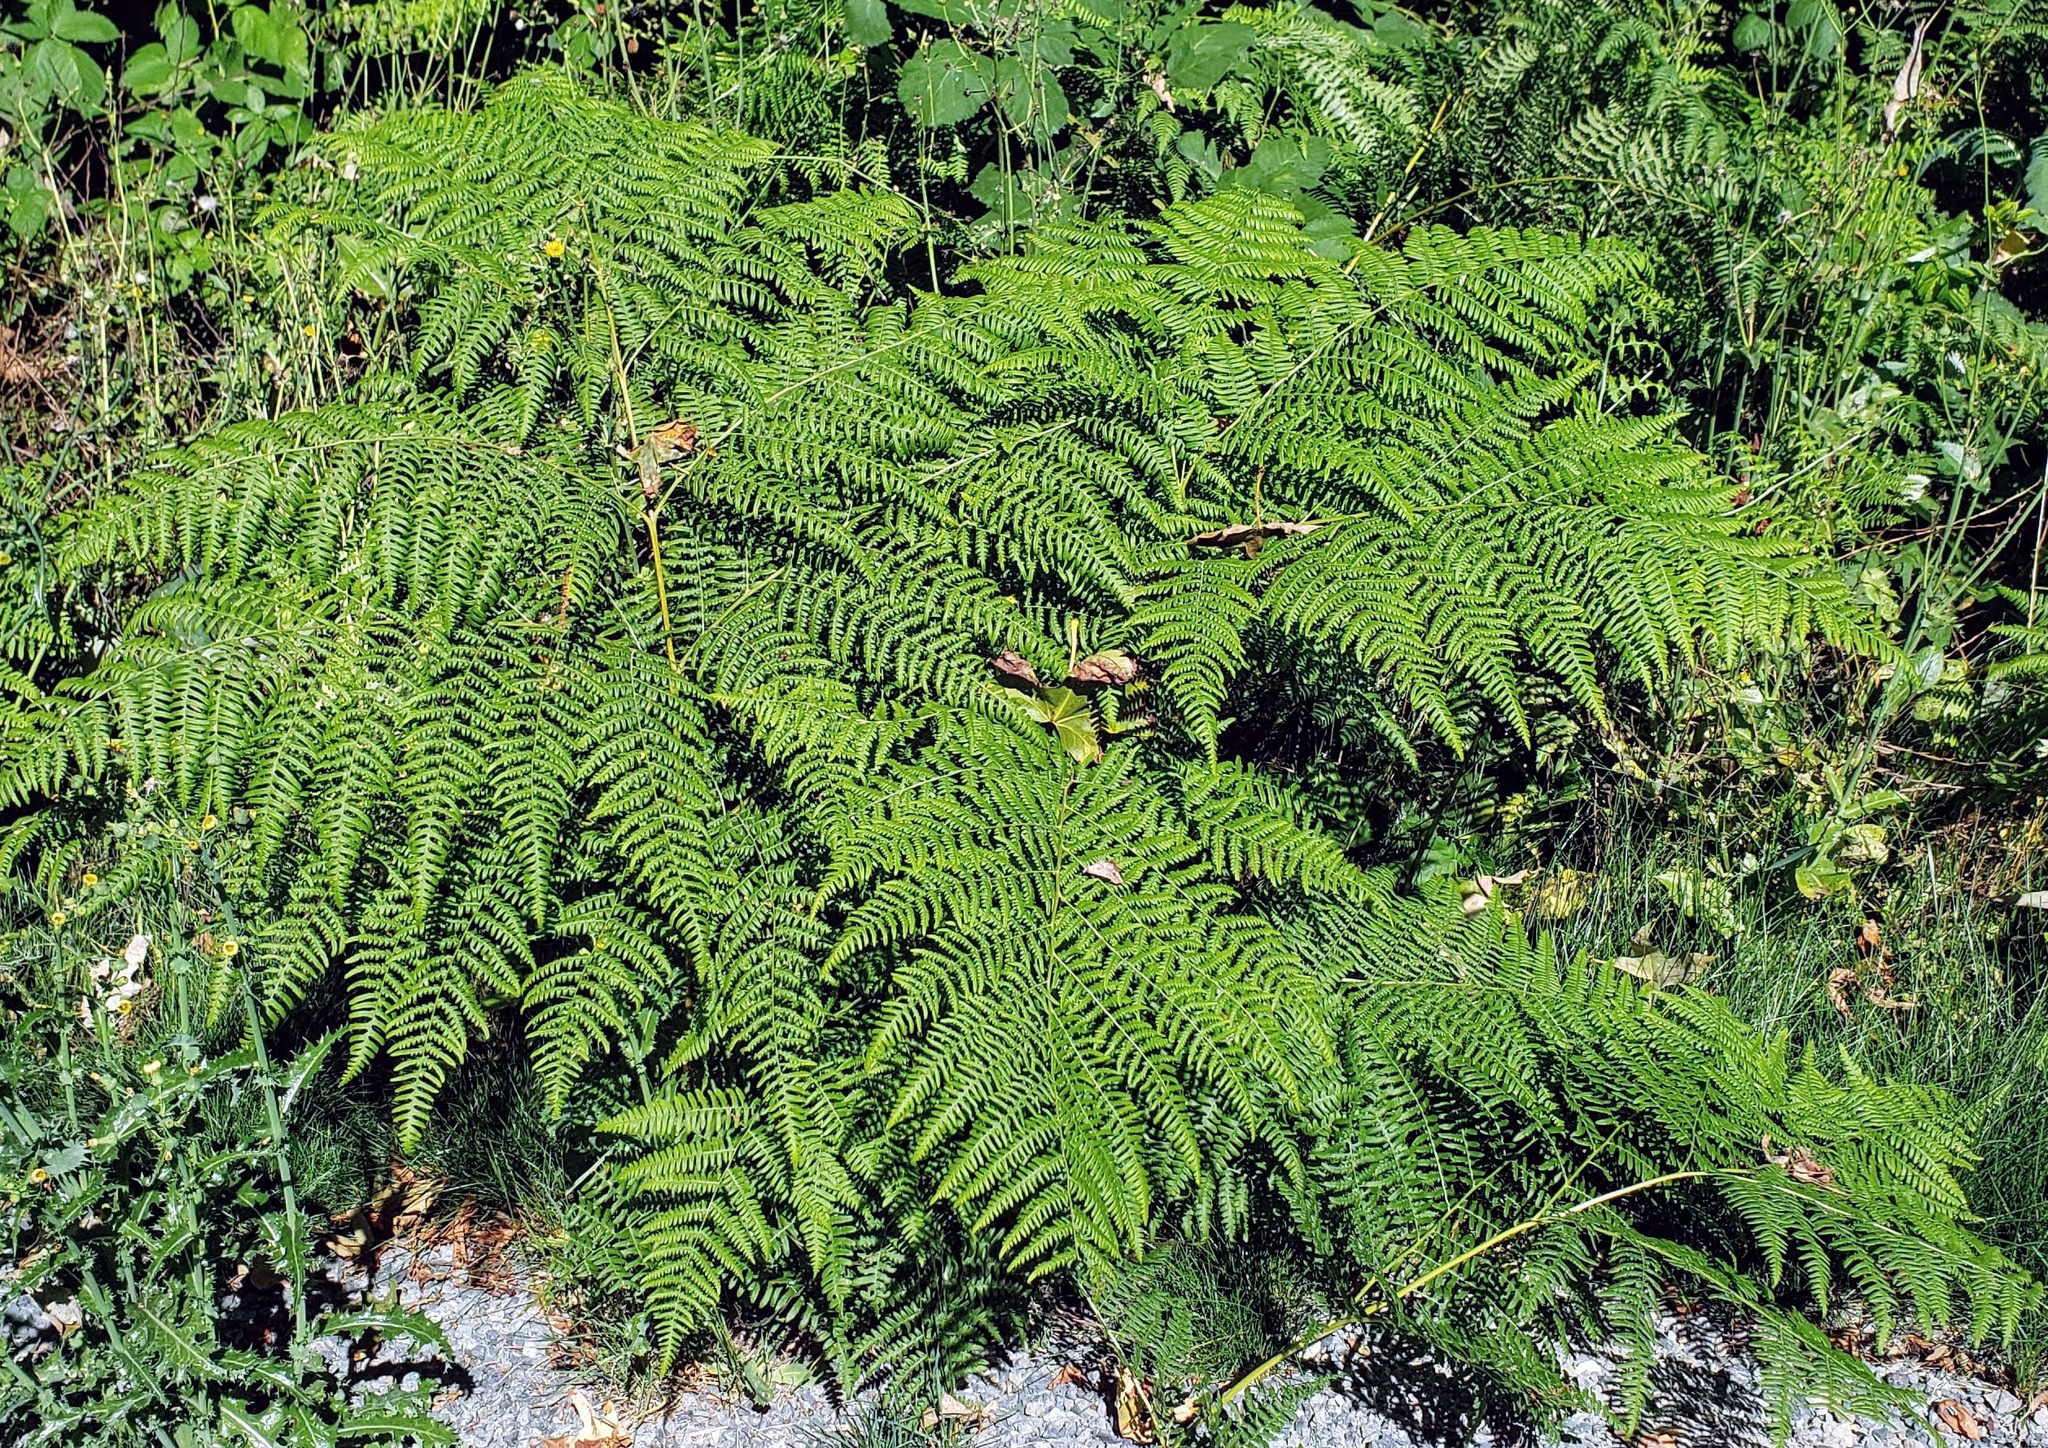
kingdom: Plantae
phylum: Tracheophyta
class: Polypodiopsida
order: Polypodiales
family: Dennstaedtiaceae
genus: Pteridium
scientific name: Pteridium aquilinum
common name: Bracken
